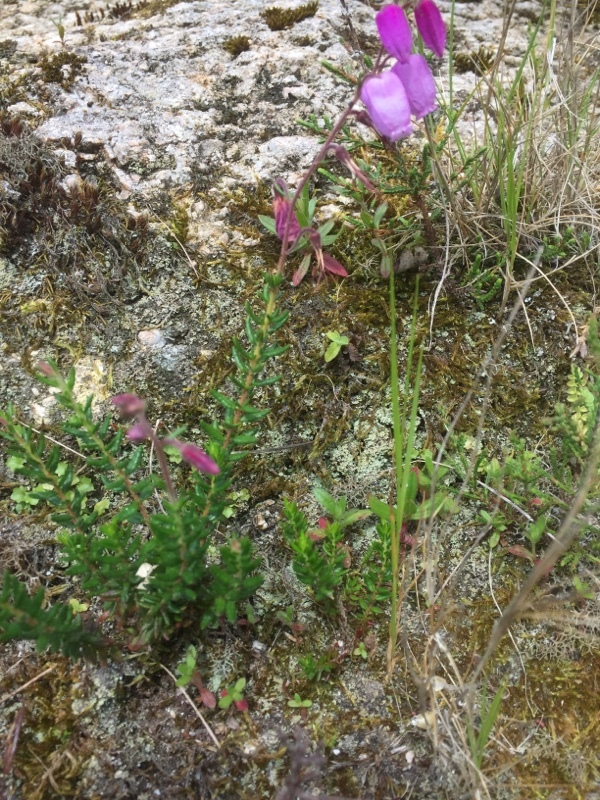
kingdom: Plantae
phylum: Tracheophyta
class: Magnoliopsida
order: Ericales
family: Ericaceae
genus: Daboecia
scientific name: Daboecia cantabrica
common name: St. dabeoc's-heath
